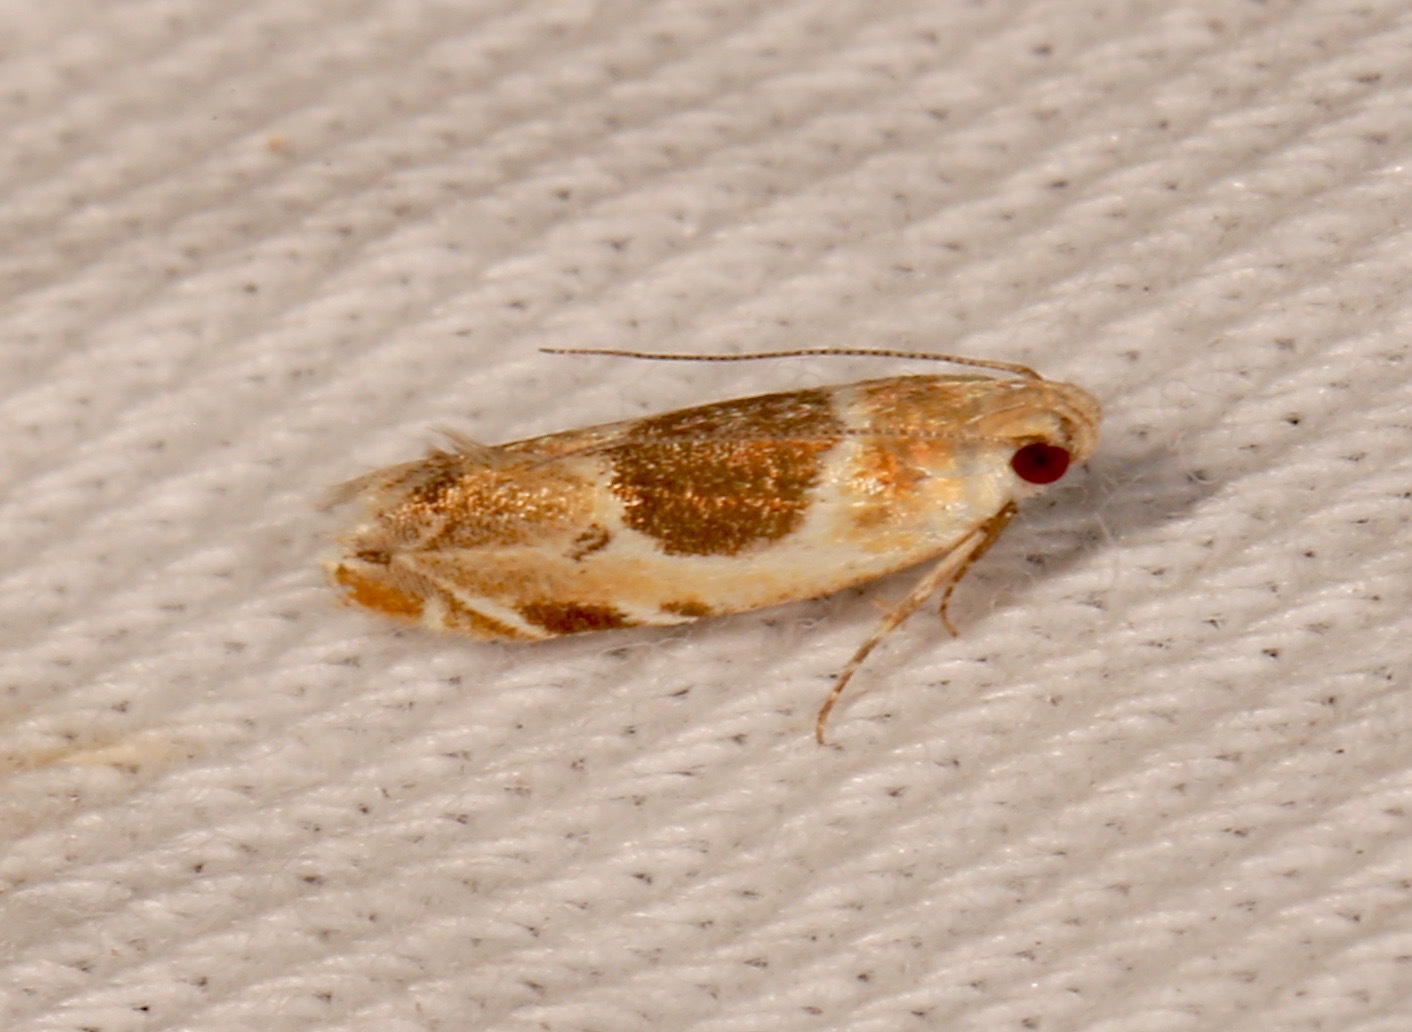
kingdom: Animalia
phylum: Arthropoda
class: Insecta
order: Lepidoptera
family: Gelechiidae
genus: Battaristis
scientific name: Battaristis cyclella
